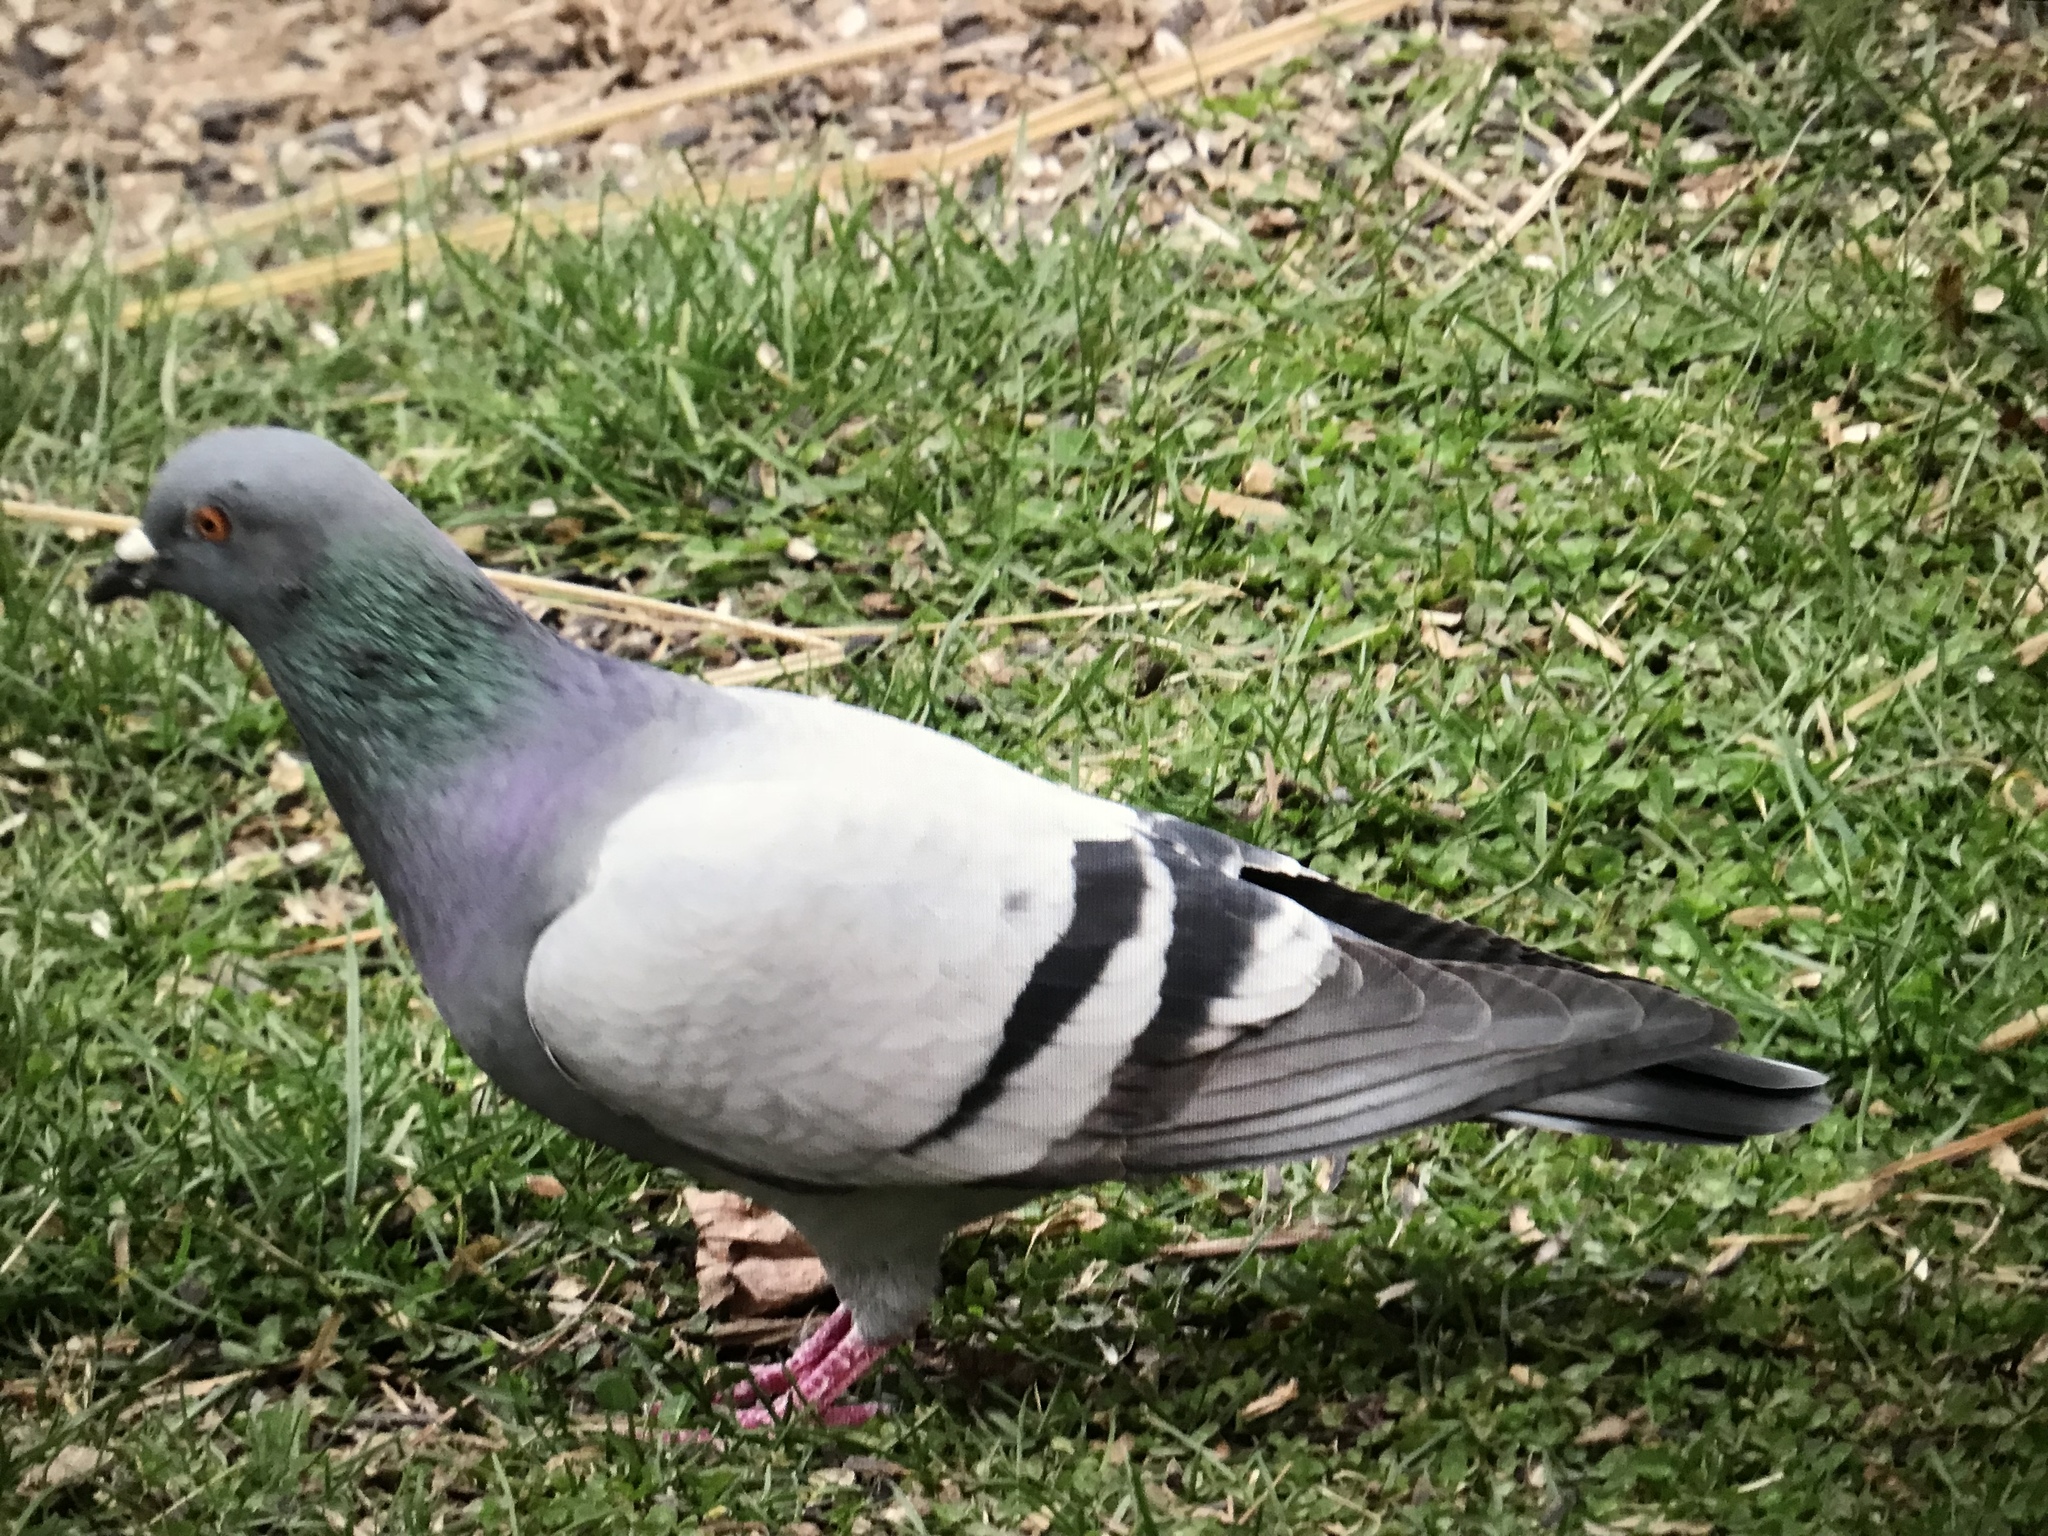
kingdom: Animalia
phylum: Chordata
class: Aves
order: Columbiformes
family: Columbidae
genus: Columba
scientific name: Columba livia
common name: Rock pigeon
